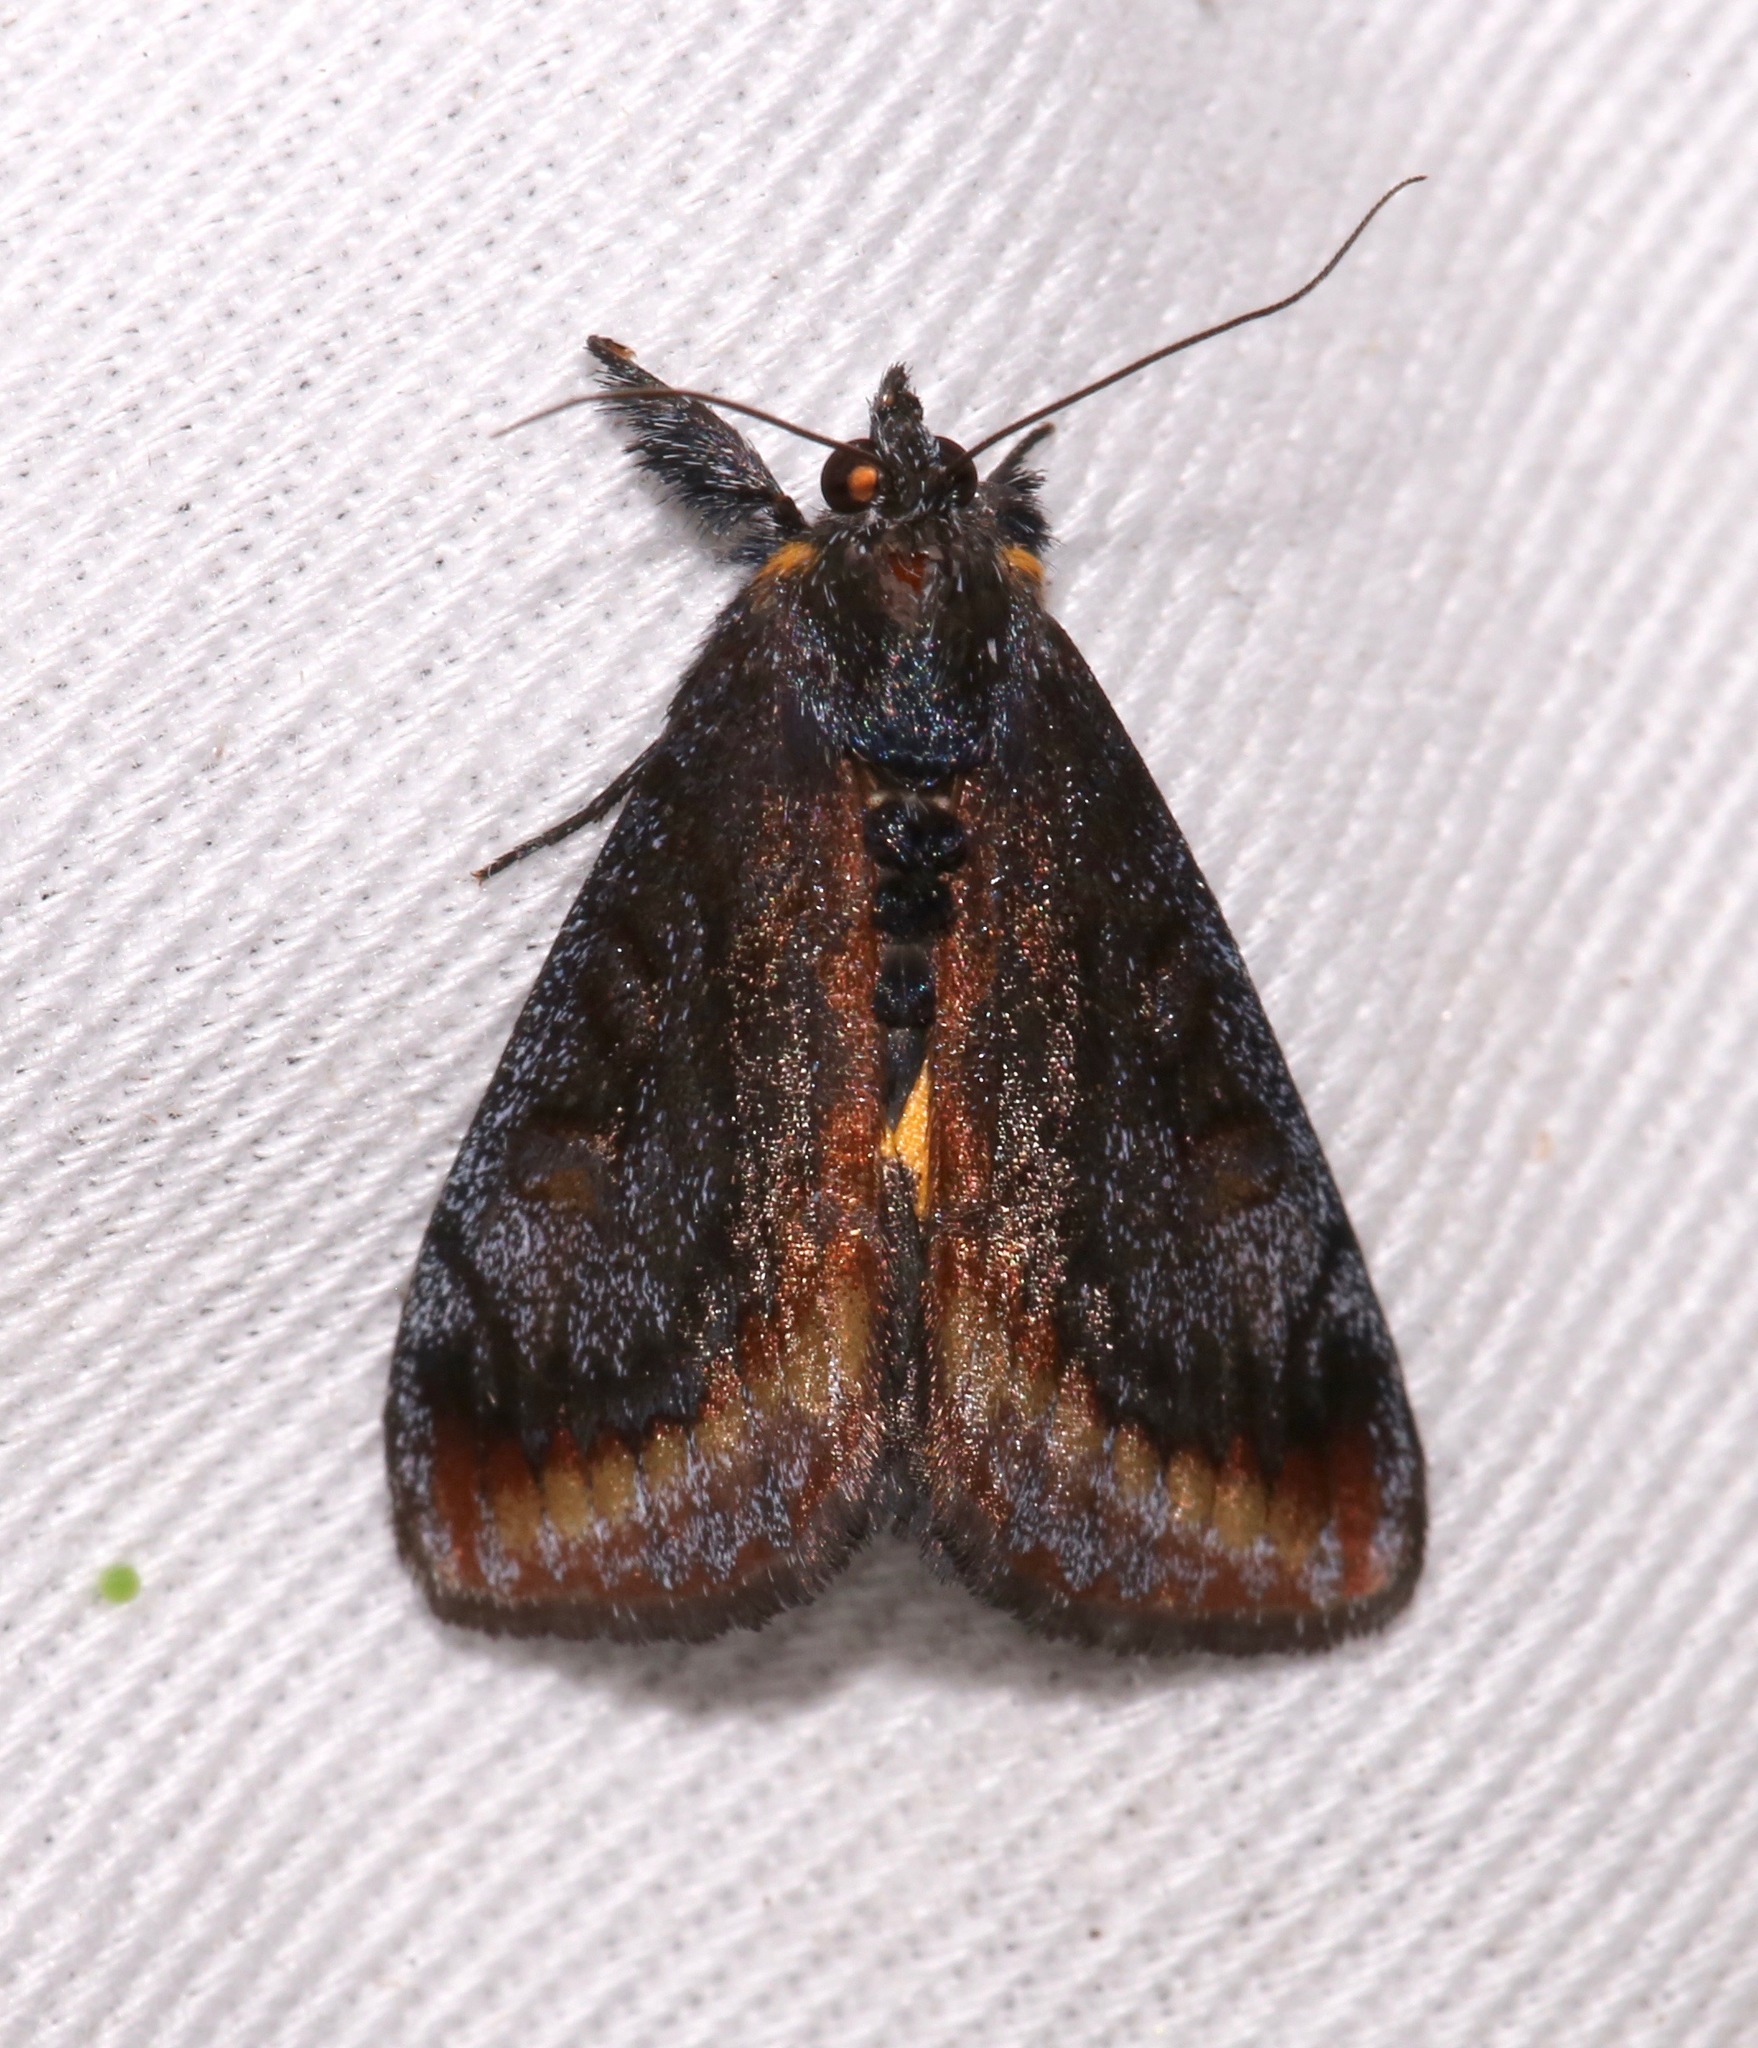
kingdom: Animalia
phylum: Arthropoda
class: Insecta
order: Lepidoptera
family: Noctuidae
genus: Gerra
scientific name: Gerra radicalis
